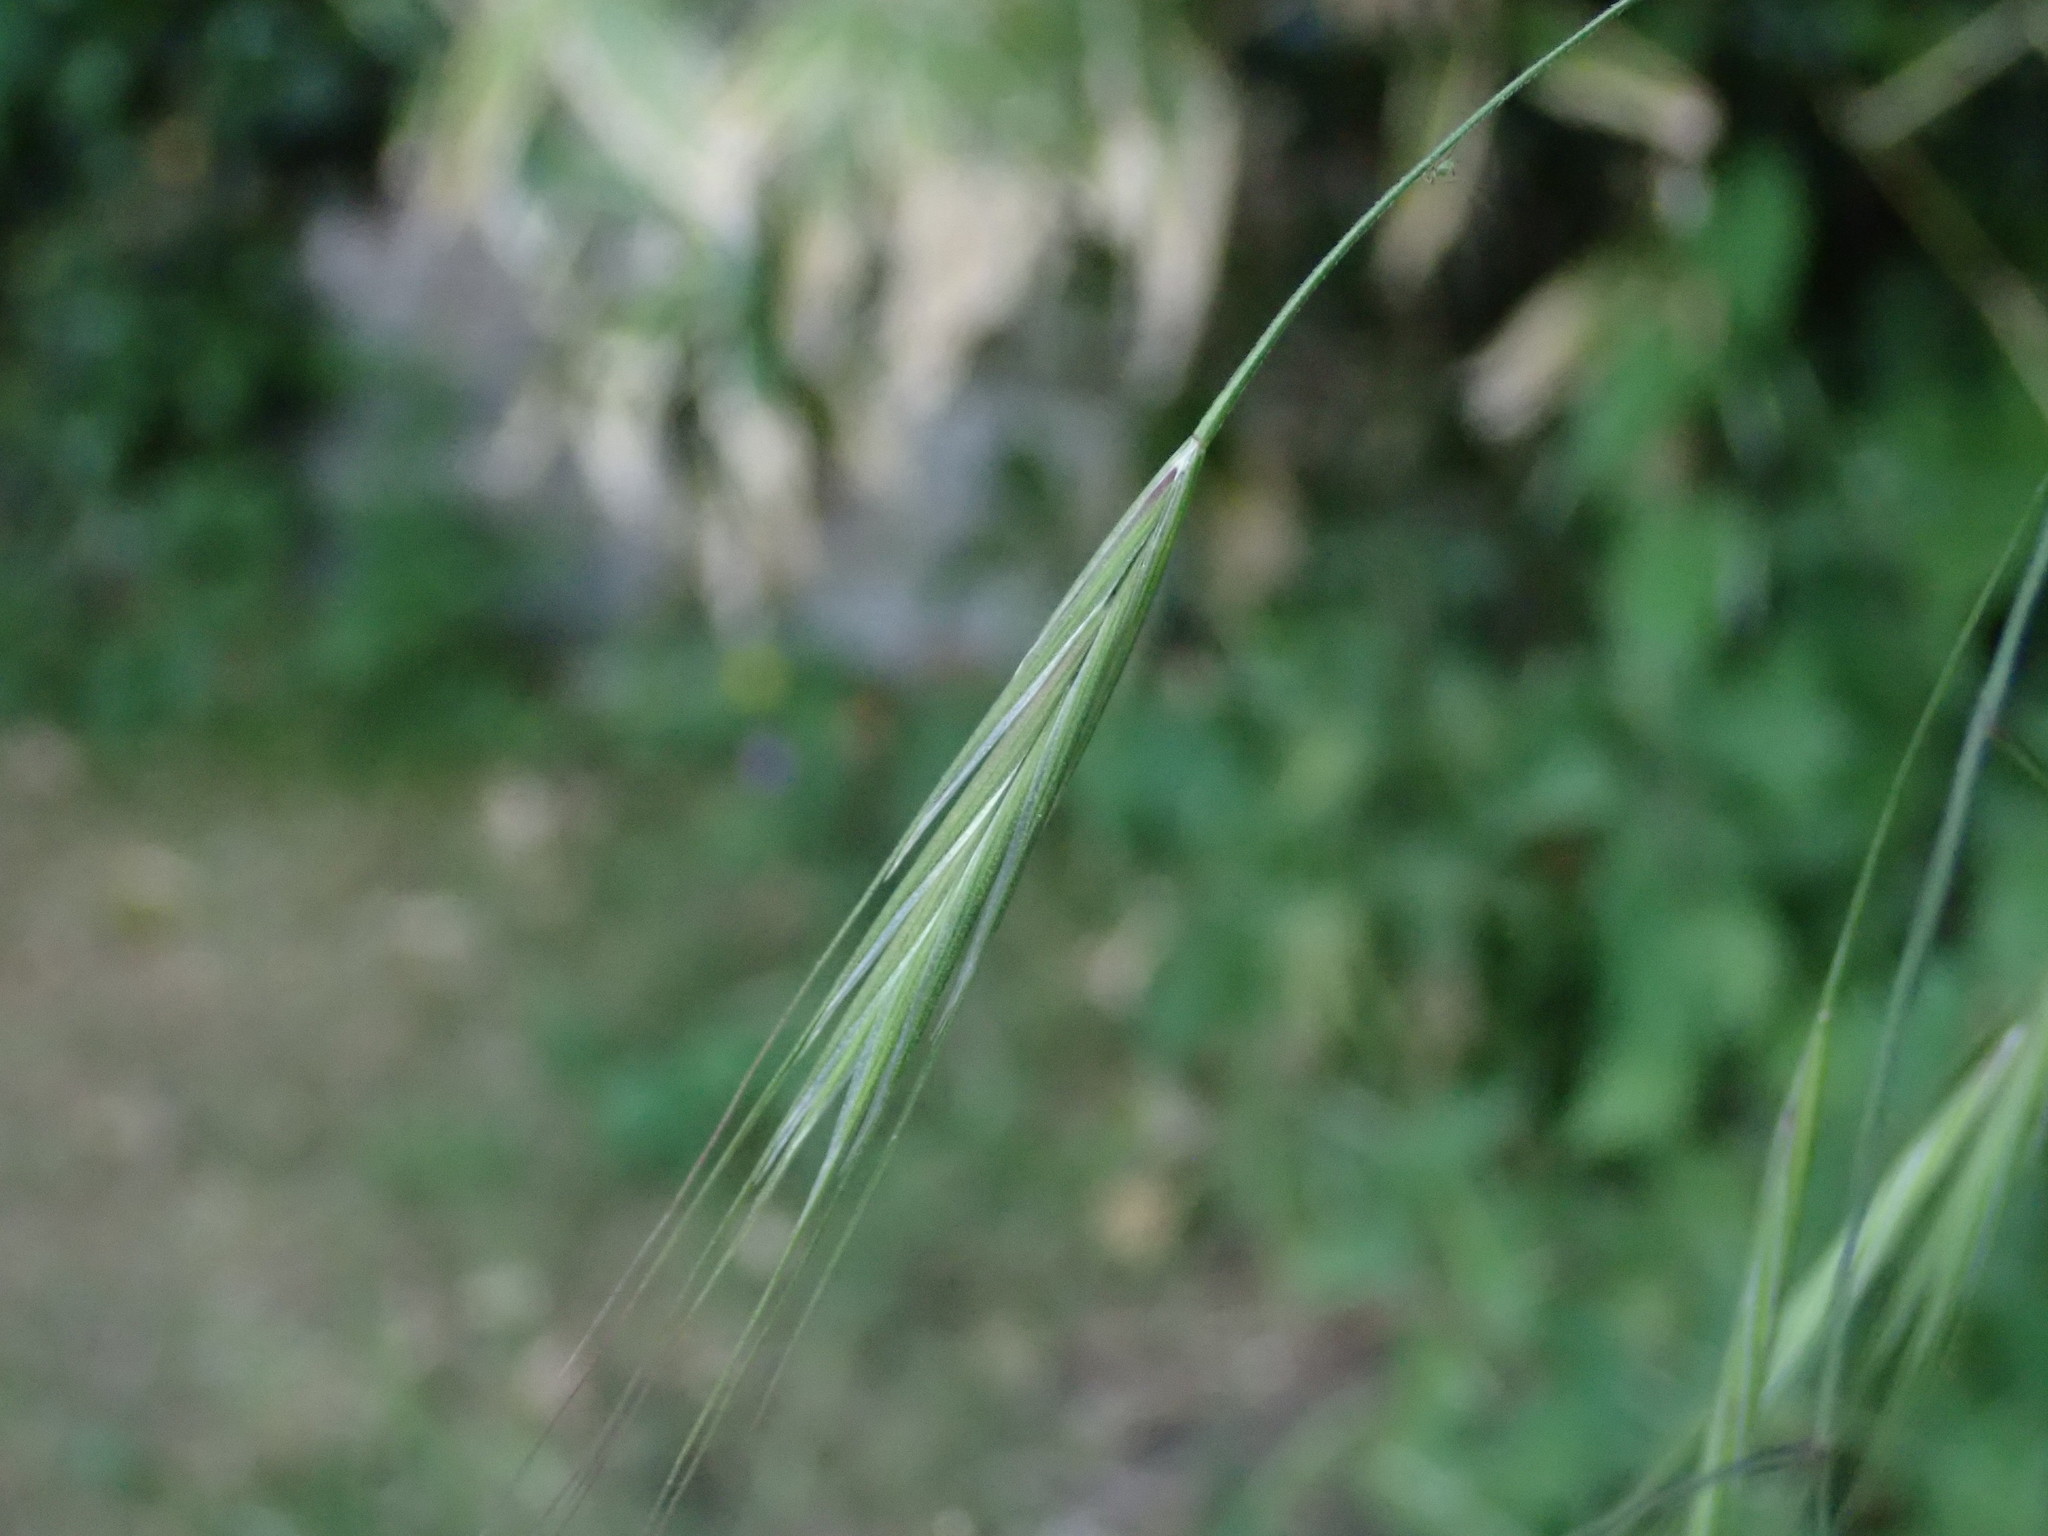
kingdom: Plantae
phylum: Tracheophyta
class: Liliopsida
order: Poales
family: Poaceae
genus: Bromus
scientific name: Bromus sterilis
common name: Poverty brome
